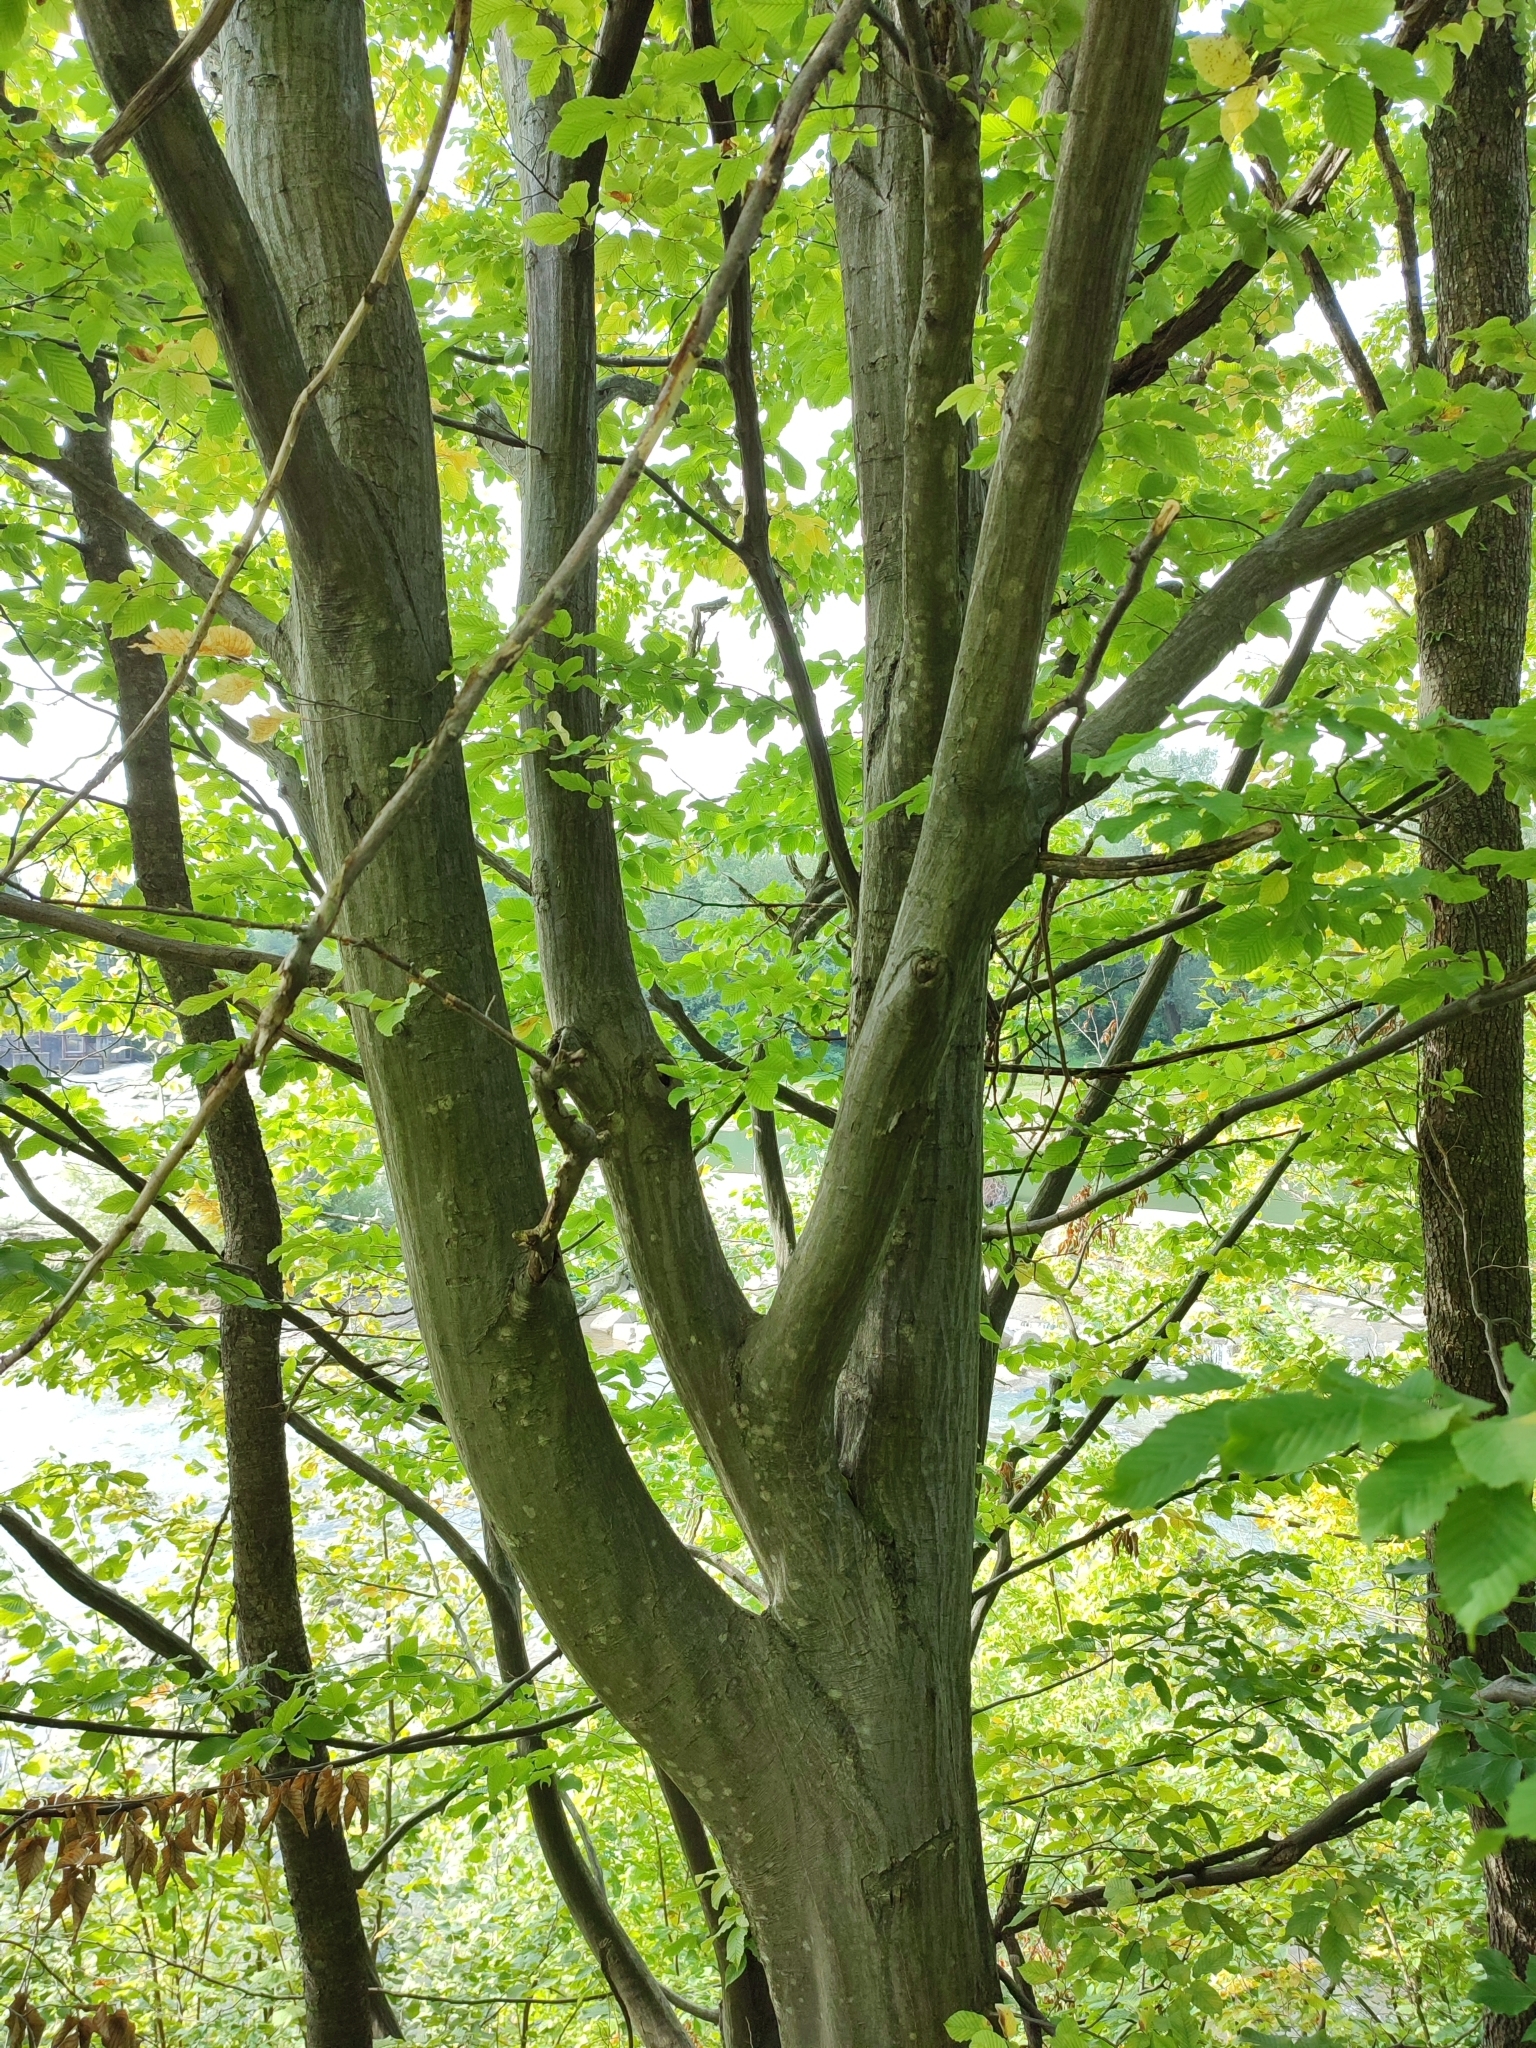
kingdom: Plantae
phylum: Tracheophyta
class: Magnoliopsida
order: Fagales
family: Betulaceae
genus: Carpinus
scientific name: Carpinus betulus
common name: Hornbeam
